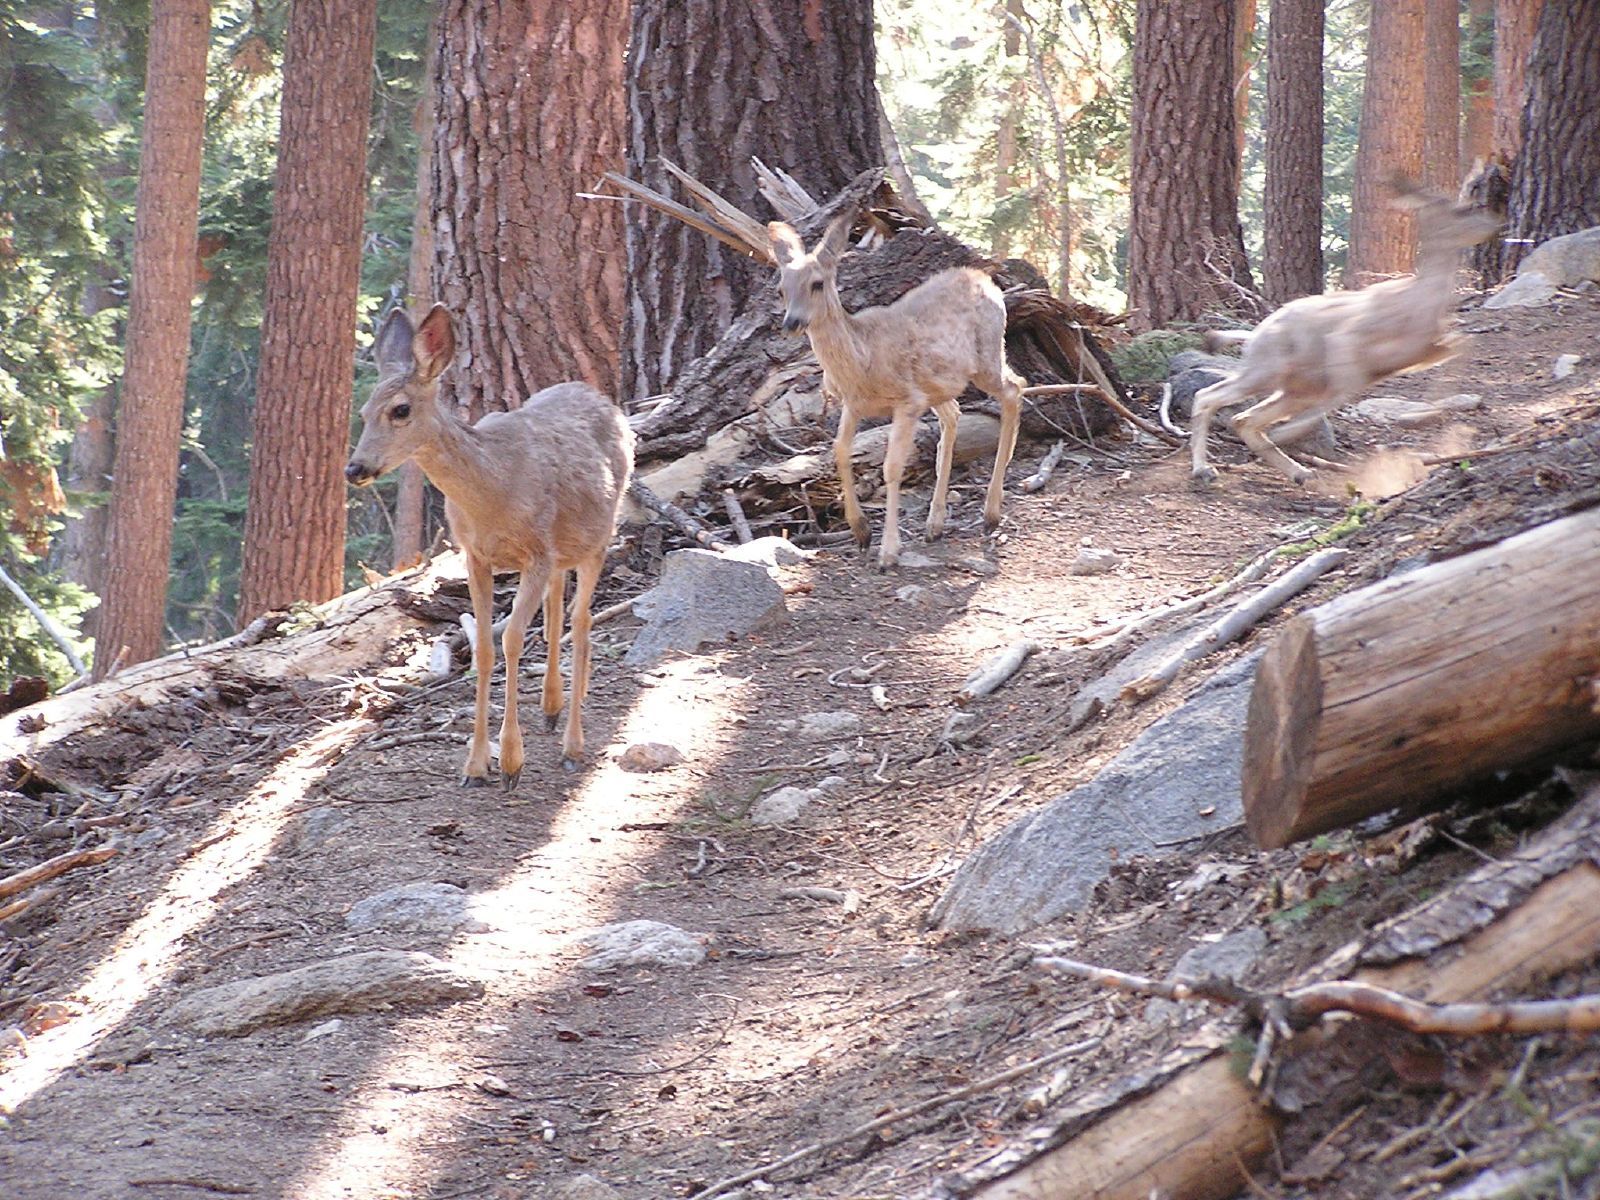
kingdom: Animalia
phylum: Chordata
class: Mammalia
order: Artiodactyla
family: Cervidae
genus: Odocoileus
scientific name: Odocoileus hemionus
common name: Mule deer
